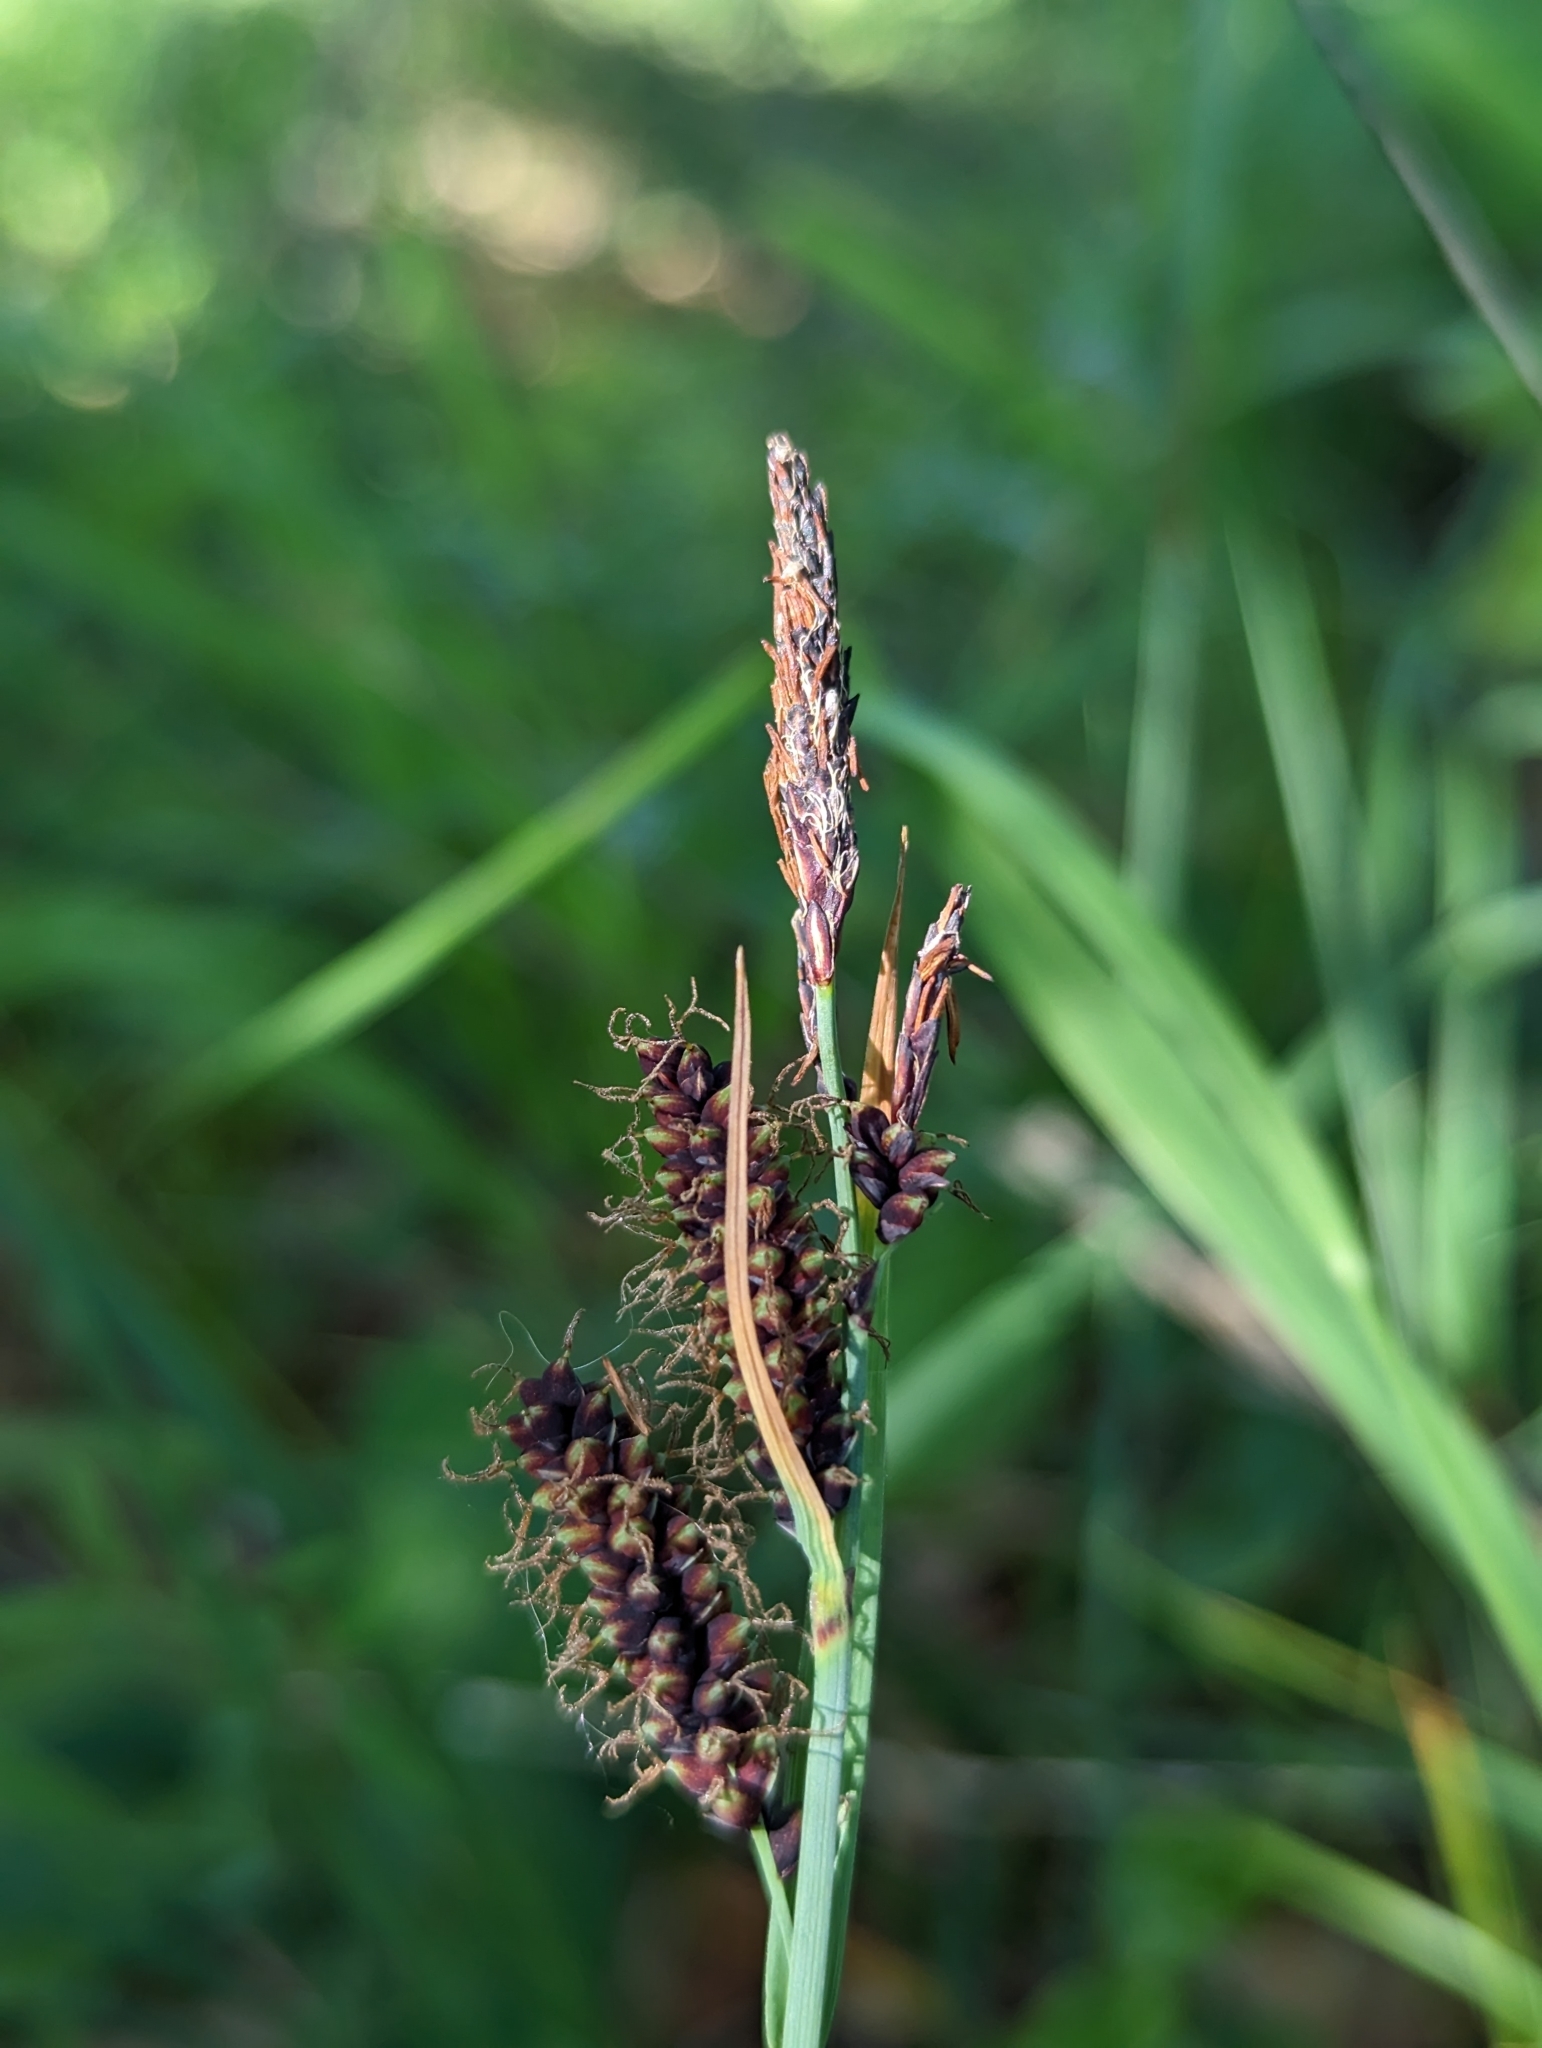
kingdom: Plantae
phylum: Tracheophyta
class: Liliopsida
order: Poales
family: Cyperaceae
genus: Carex
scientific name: Carex flacca
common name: Glaucous sedge
